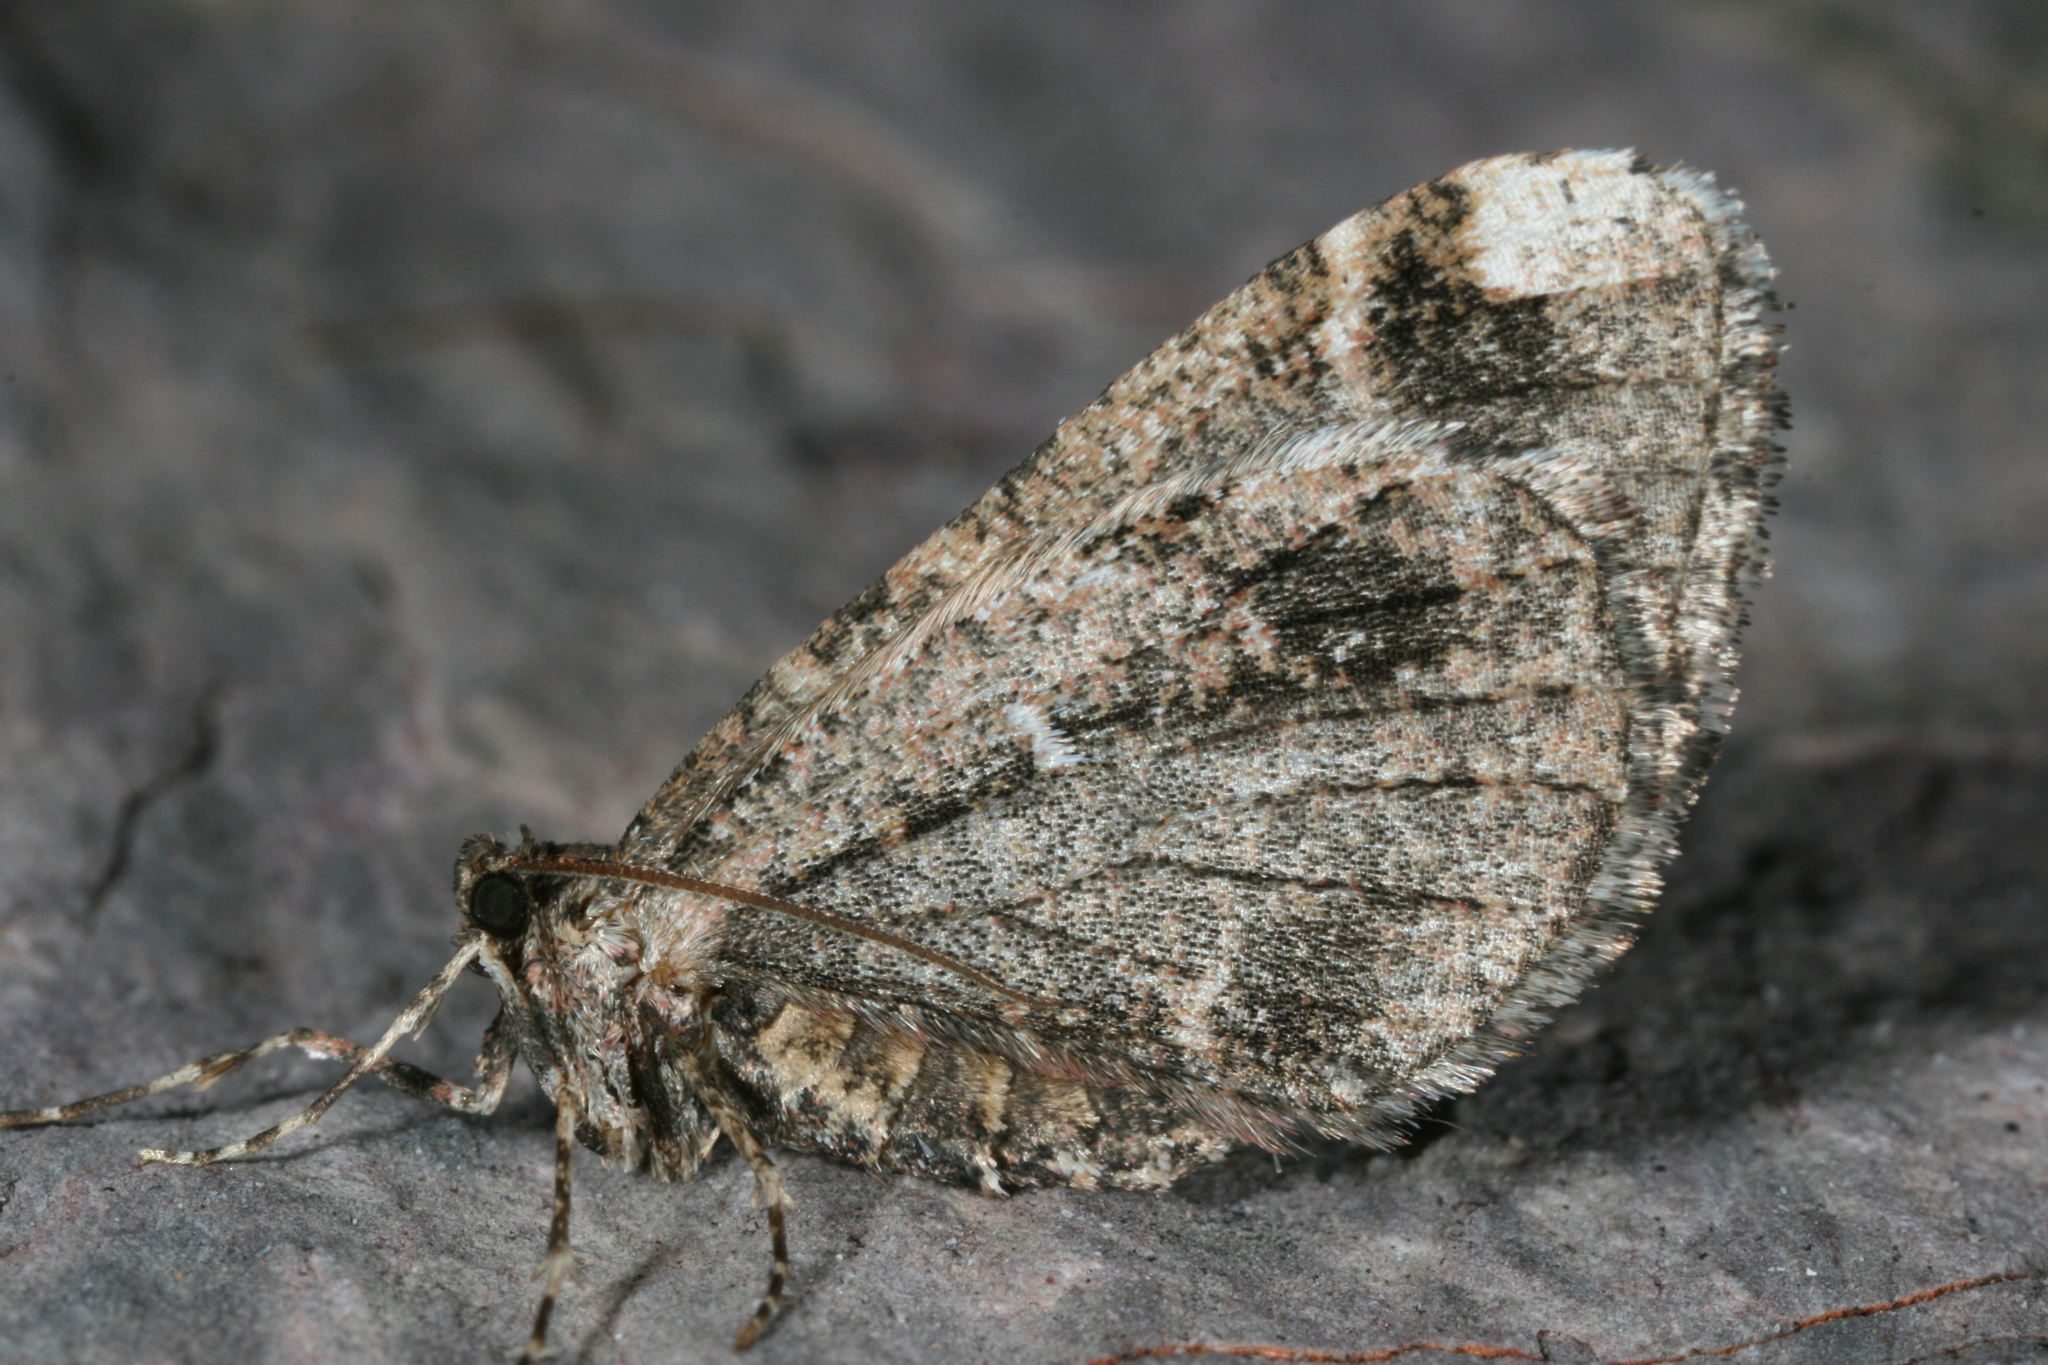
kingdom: Animalia
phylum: Arthropoda
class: Insecta
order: Lepidoptera
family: Geometridae
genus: Stamnodes
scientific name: Stamnodes albiapicata
